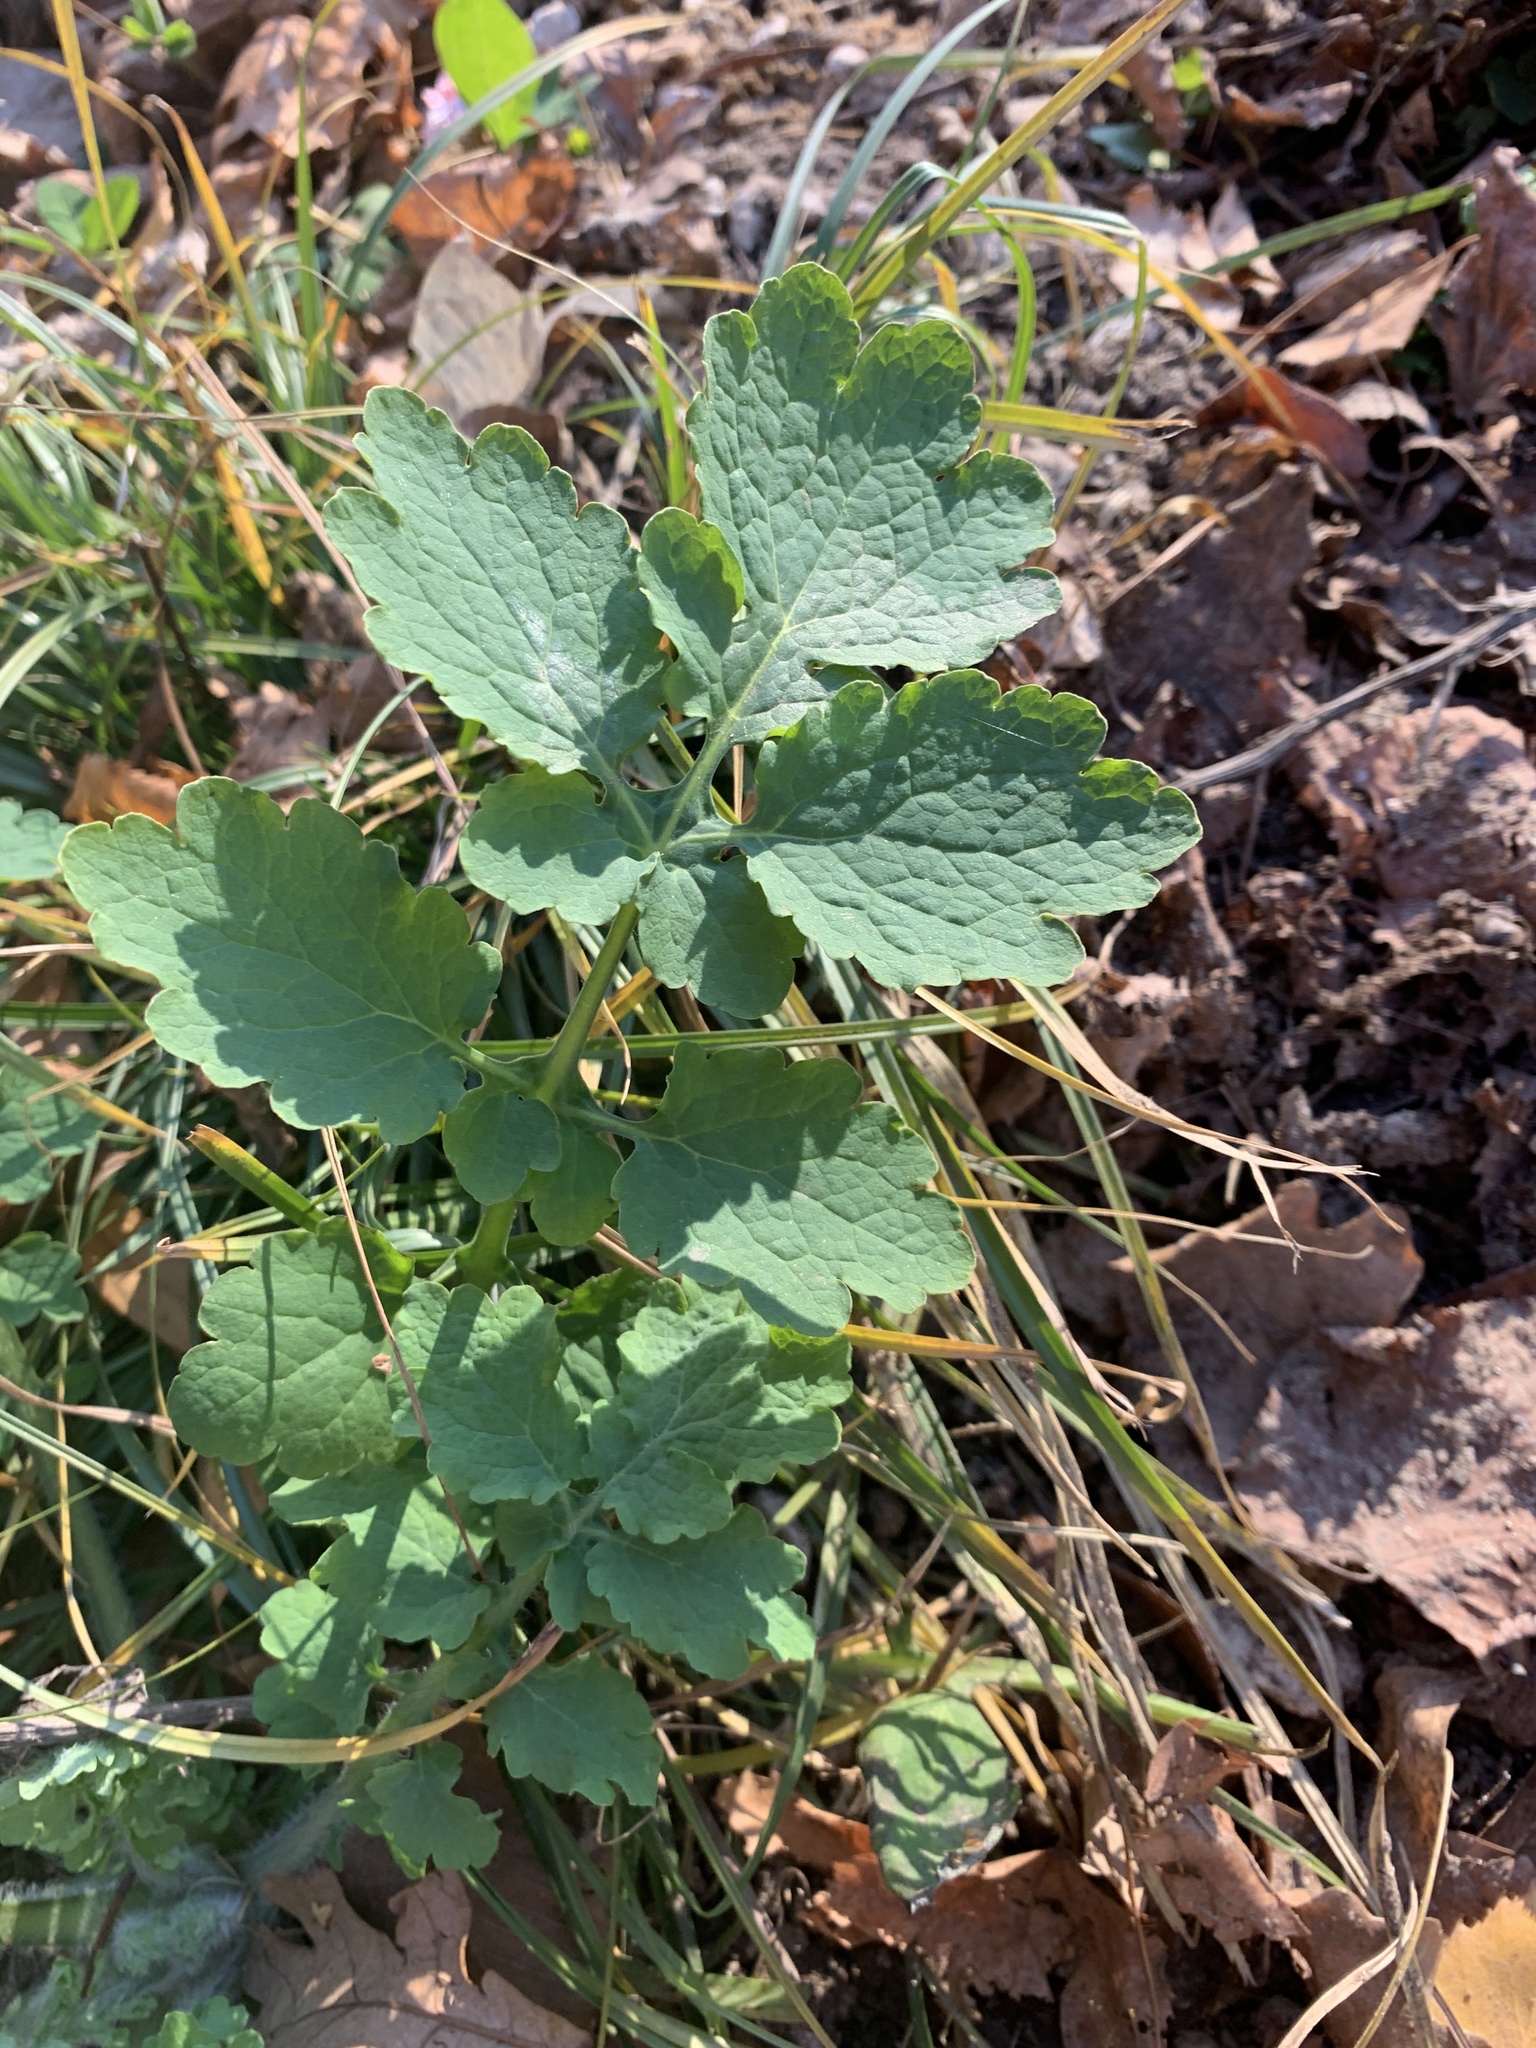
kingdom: Plantae
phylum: Tracheophyta
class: Magnoliopsida
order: Ranunculales
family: Papaveraceae
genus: Chelidonium
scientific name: Chelidonium majus
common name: Greater celandine
